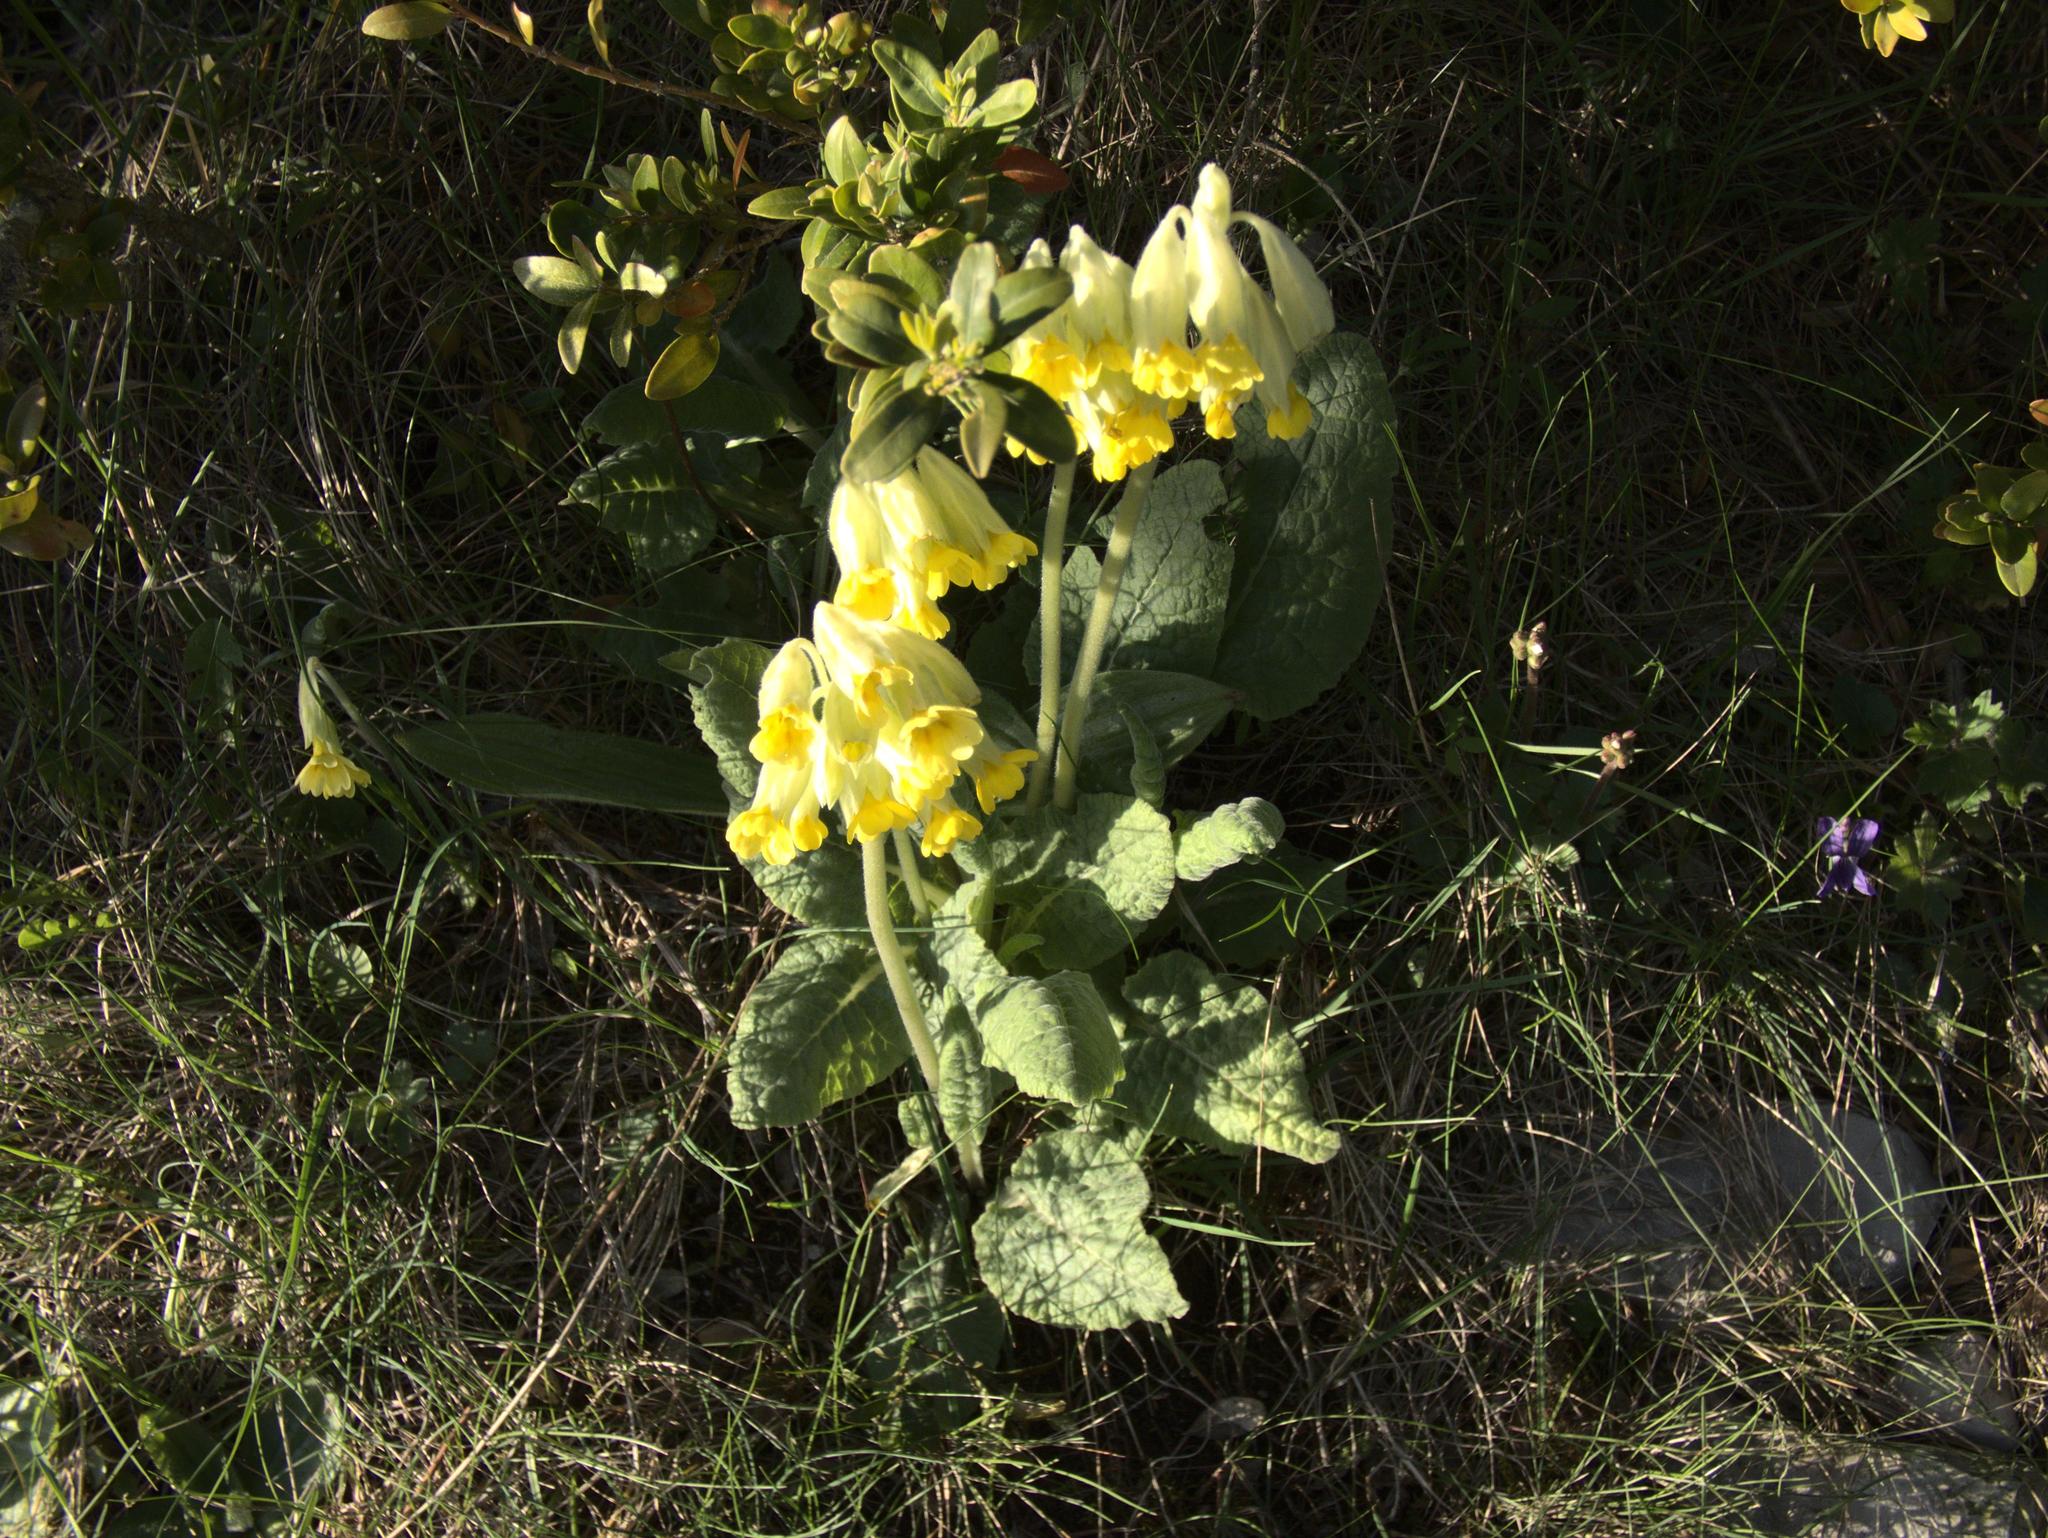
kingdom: Plantae
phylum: Tracheophyta
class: Magnoliopsida
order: Ericales
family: Primulaceae
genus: Primula
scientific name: Primula veris
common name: Cowslip
